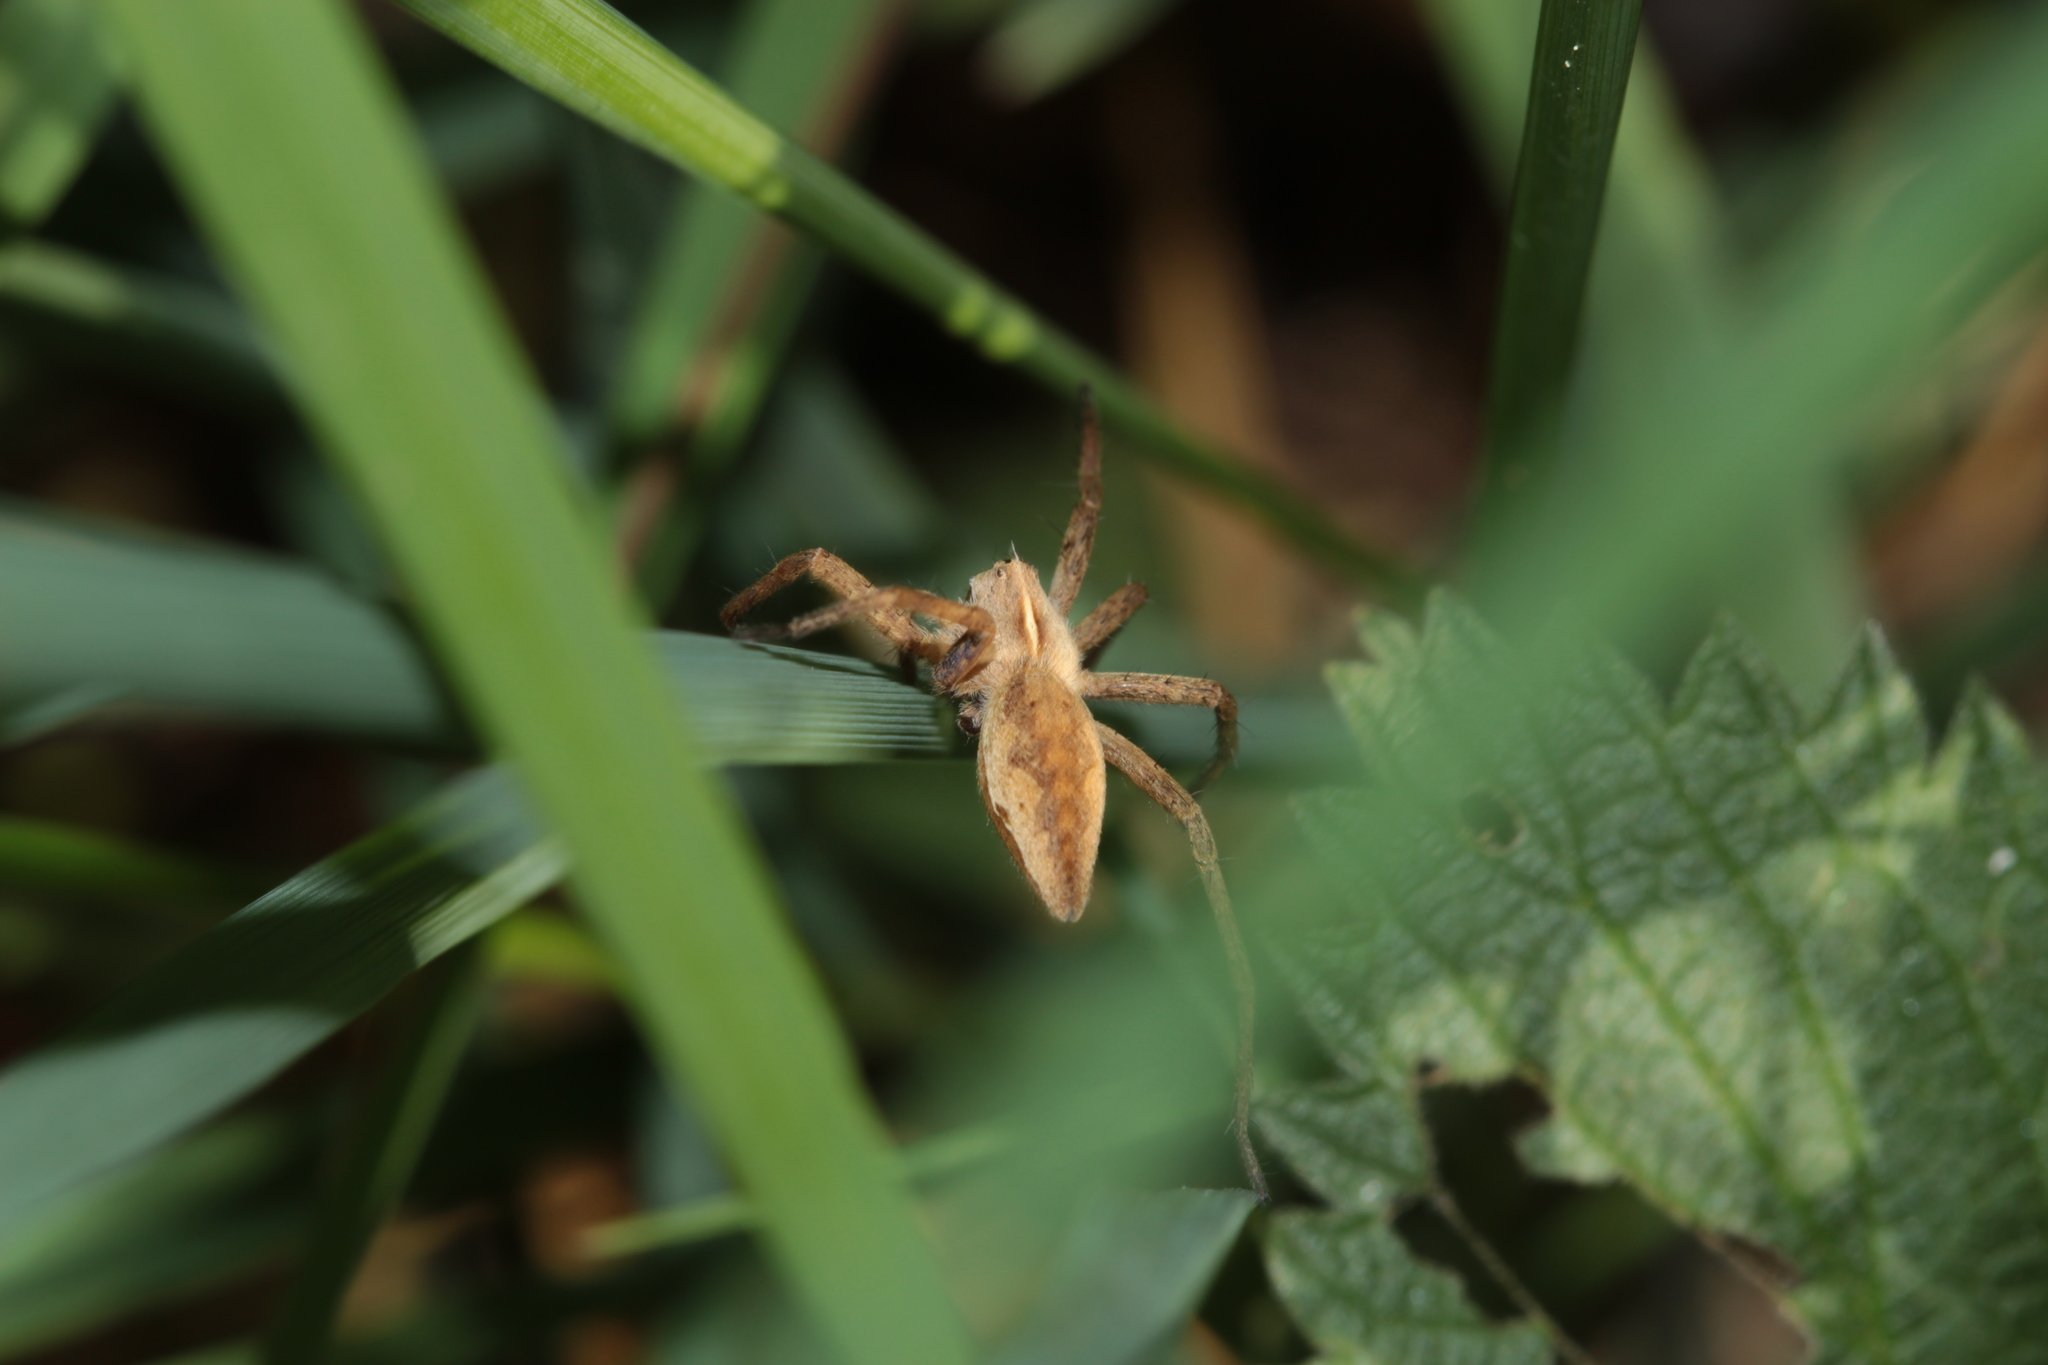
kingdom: Animalia
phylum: Arthropoda
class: Arachnida
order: Araneae
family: Pisauridae
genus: Pisaura
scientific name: Pisaura mirabilis
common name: Tent spider
